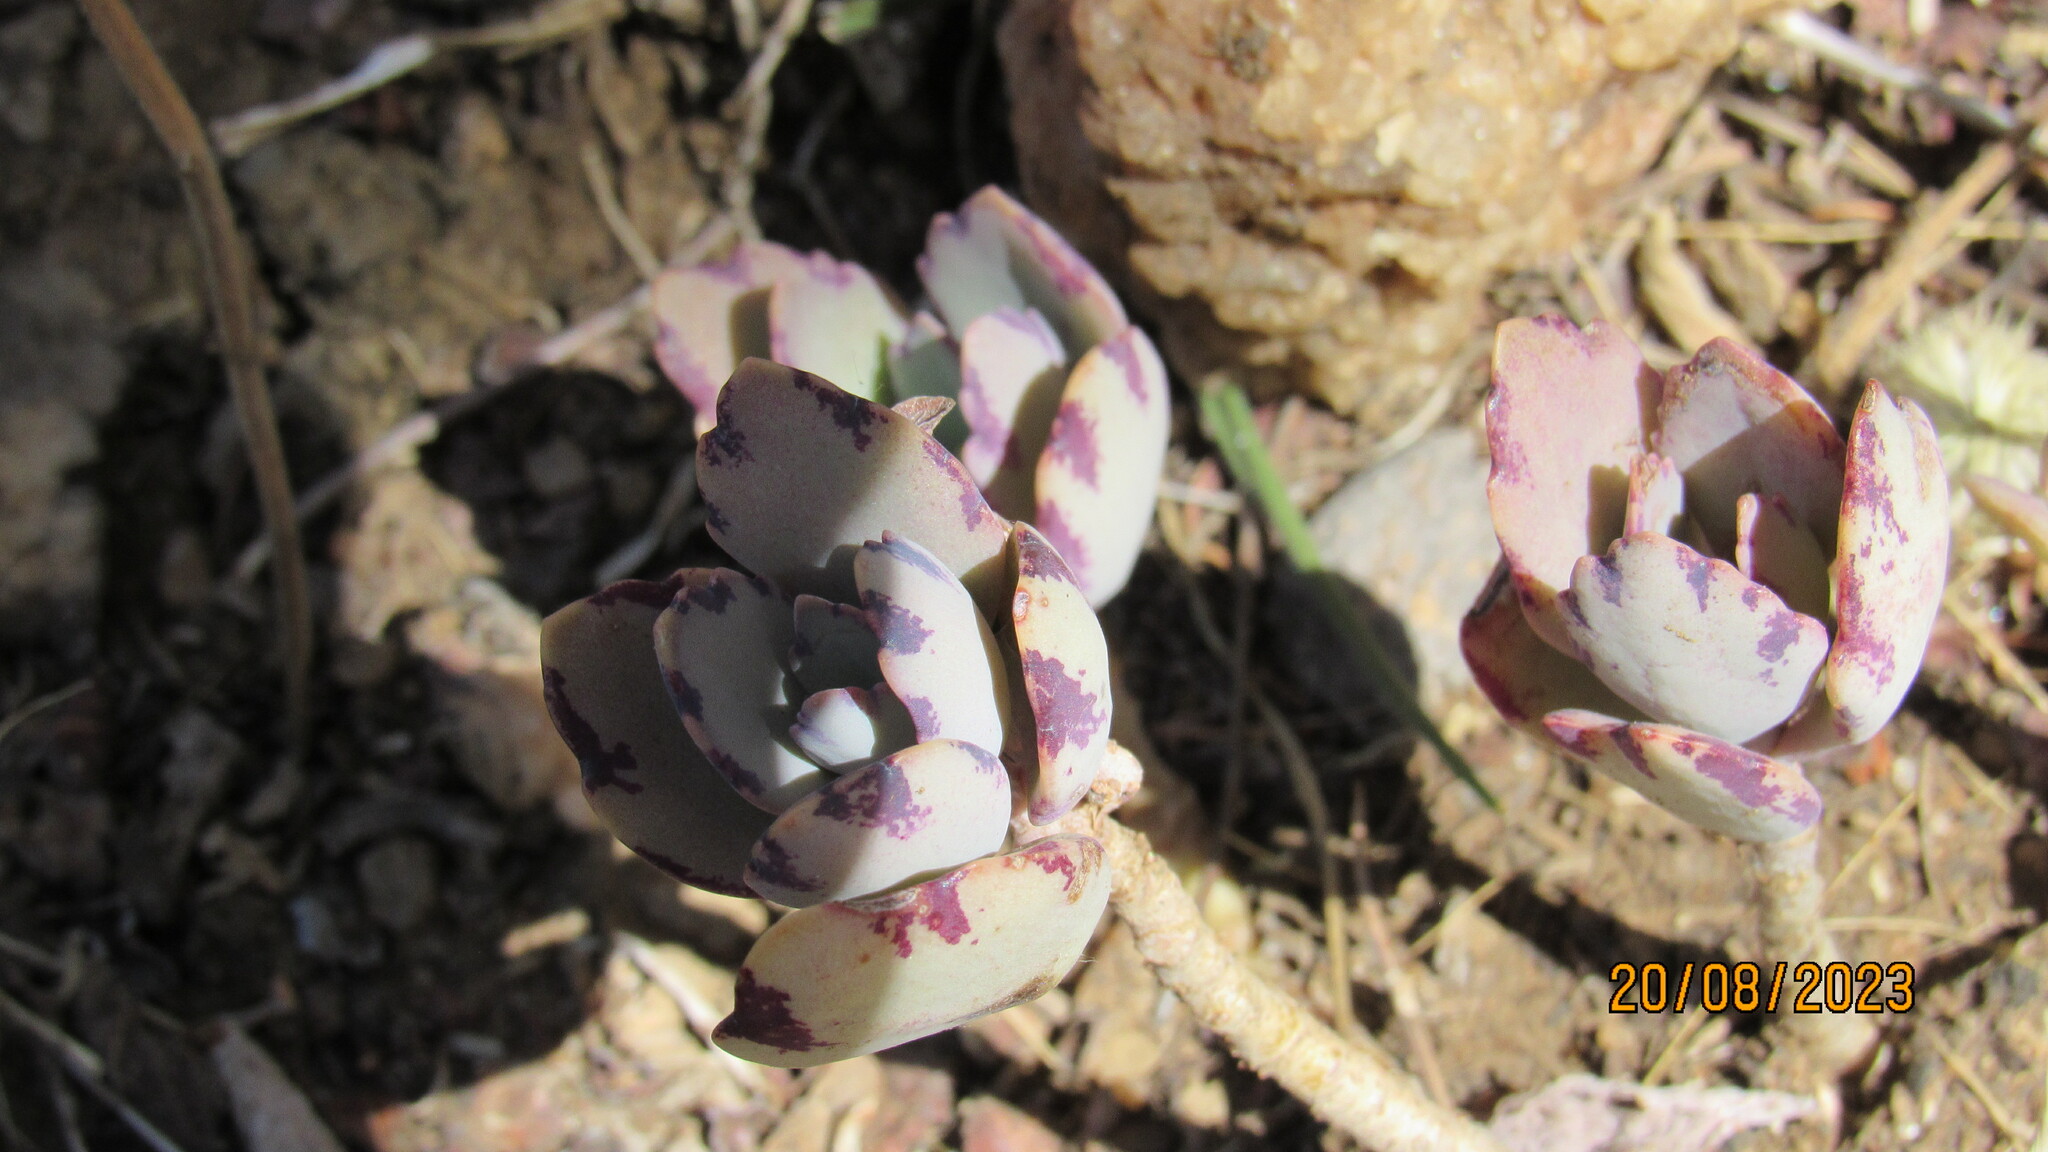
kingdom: Plantae
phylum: Tracheophyta
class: Magnoliopsida
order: Saxifragales
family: Crassulaceae
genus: Kalanchoe
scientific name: Kalanchoe laxiflora
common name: Milky widow's thrill
